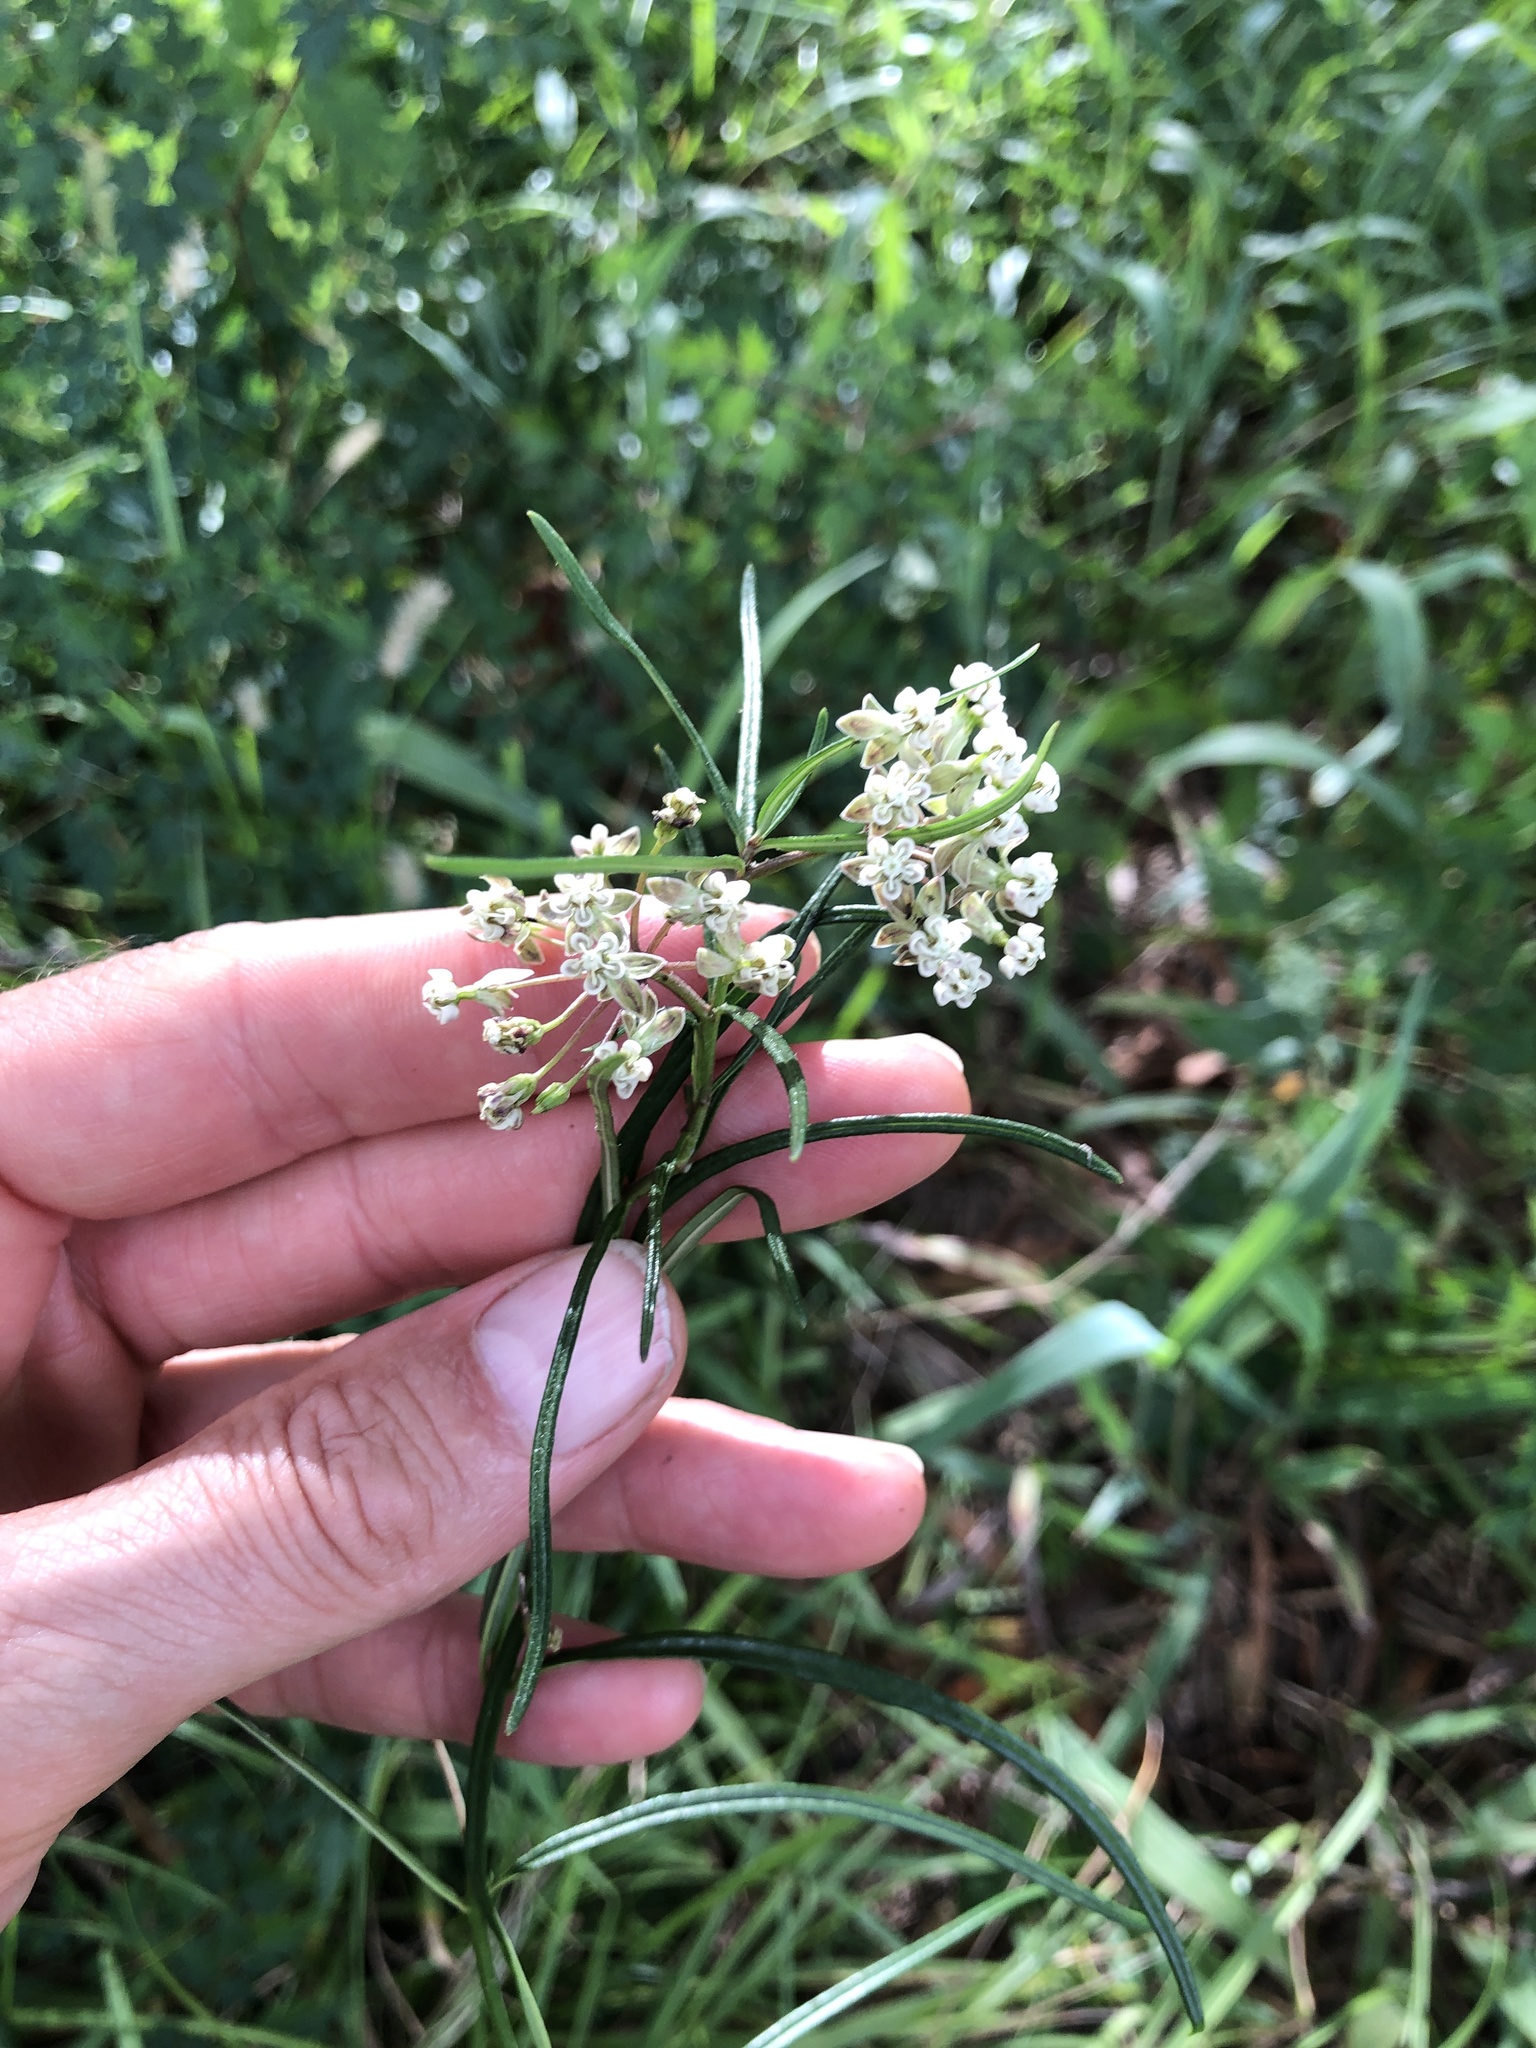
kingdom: Plantae
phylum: Tracheophyta
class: Magnoliopsida
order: Gentianales
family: Apocynaceae
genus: Asclepias
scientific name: Asclepias verticillata
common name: Eastern whorled milkweed
